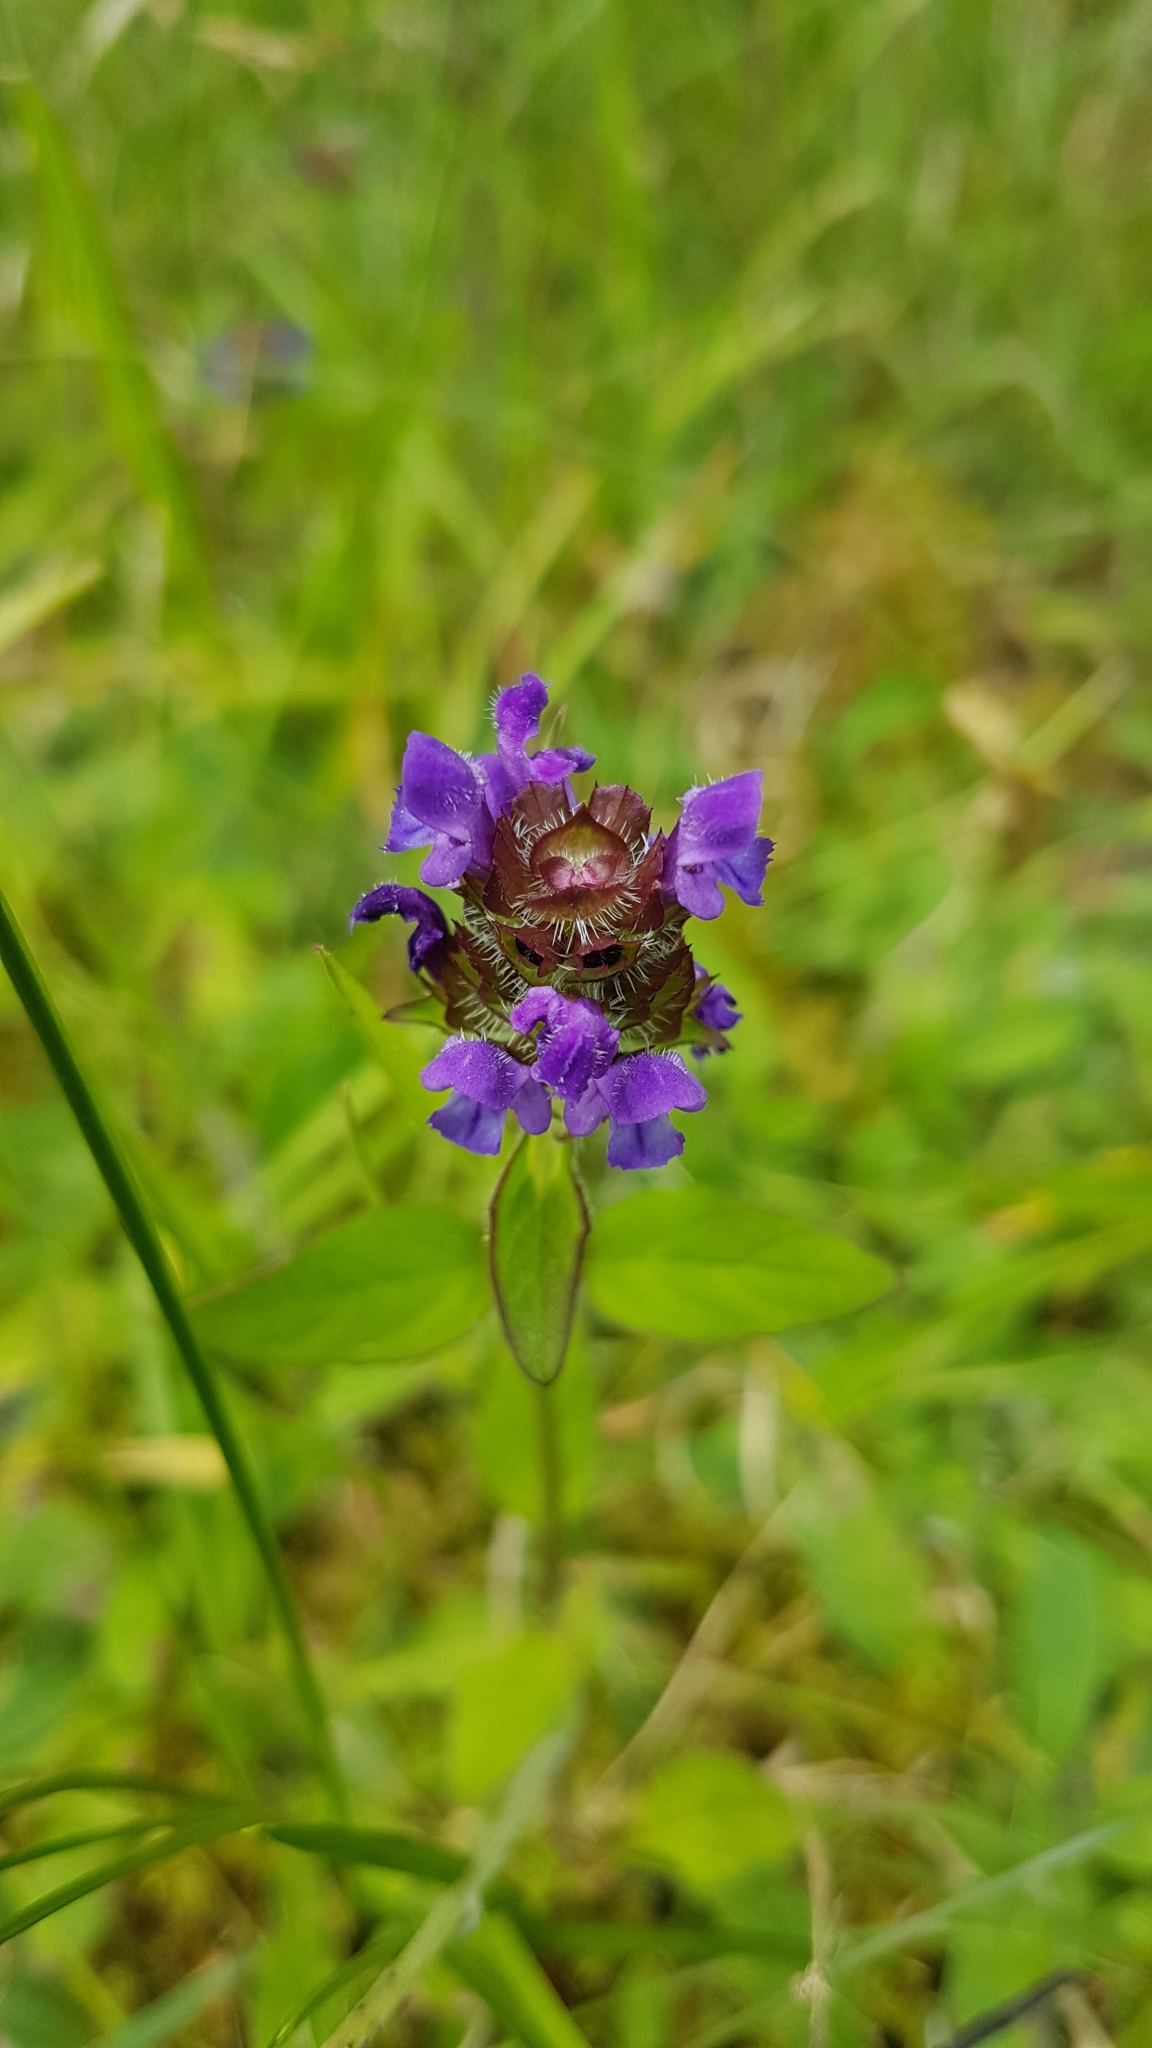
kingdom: Plantae
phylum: Tracheophyta
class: Magnoliopsida
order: Lamiales
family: Lamiaceae
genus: Prunella
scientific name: Prunella vulgaris
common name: Heal-all
